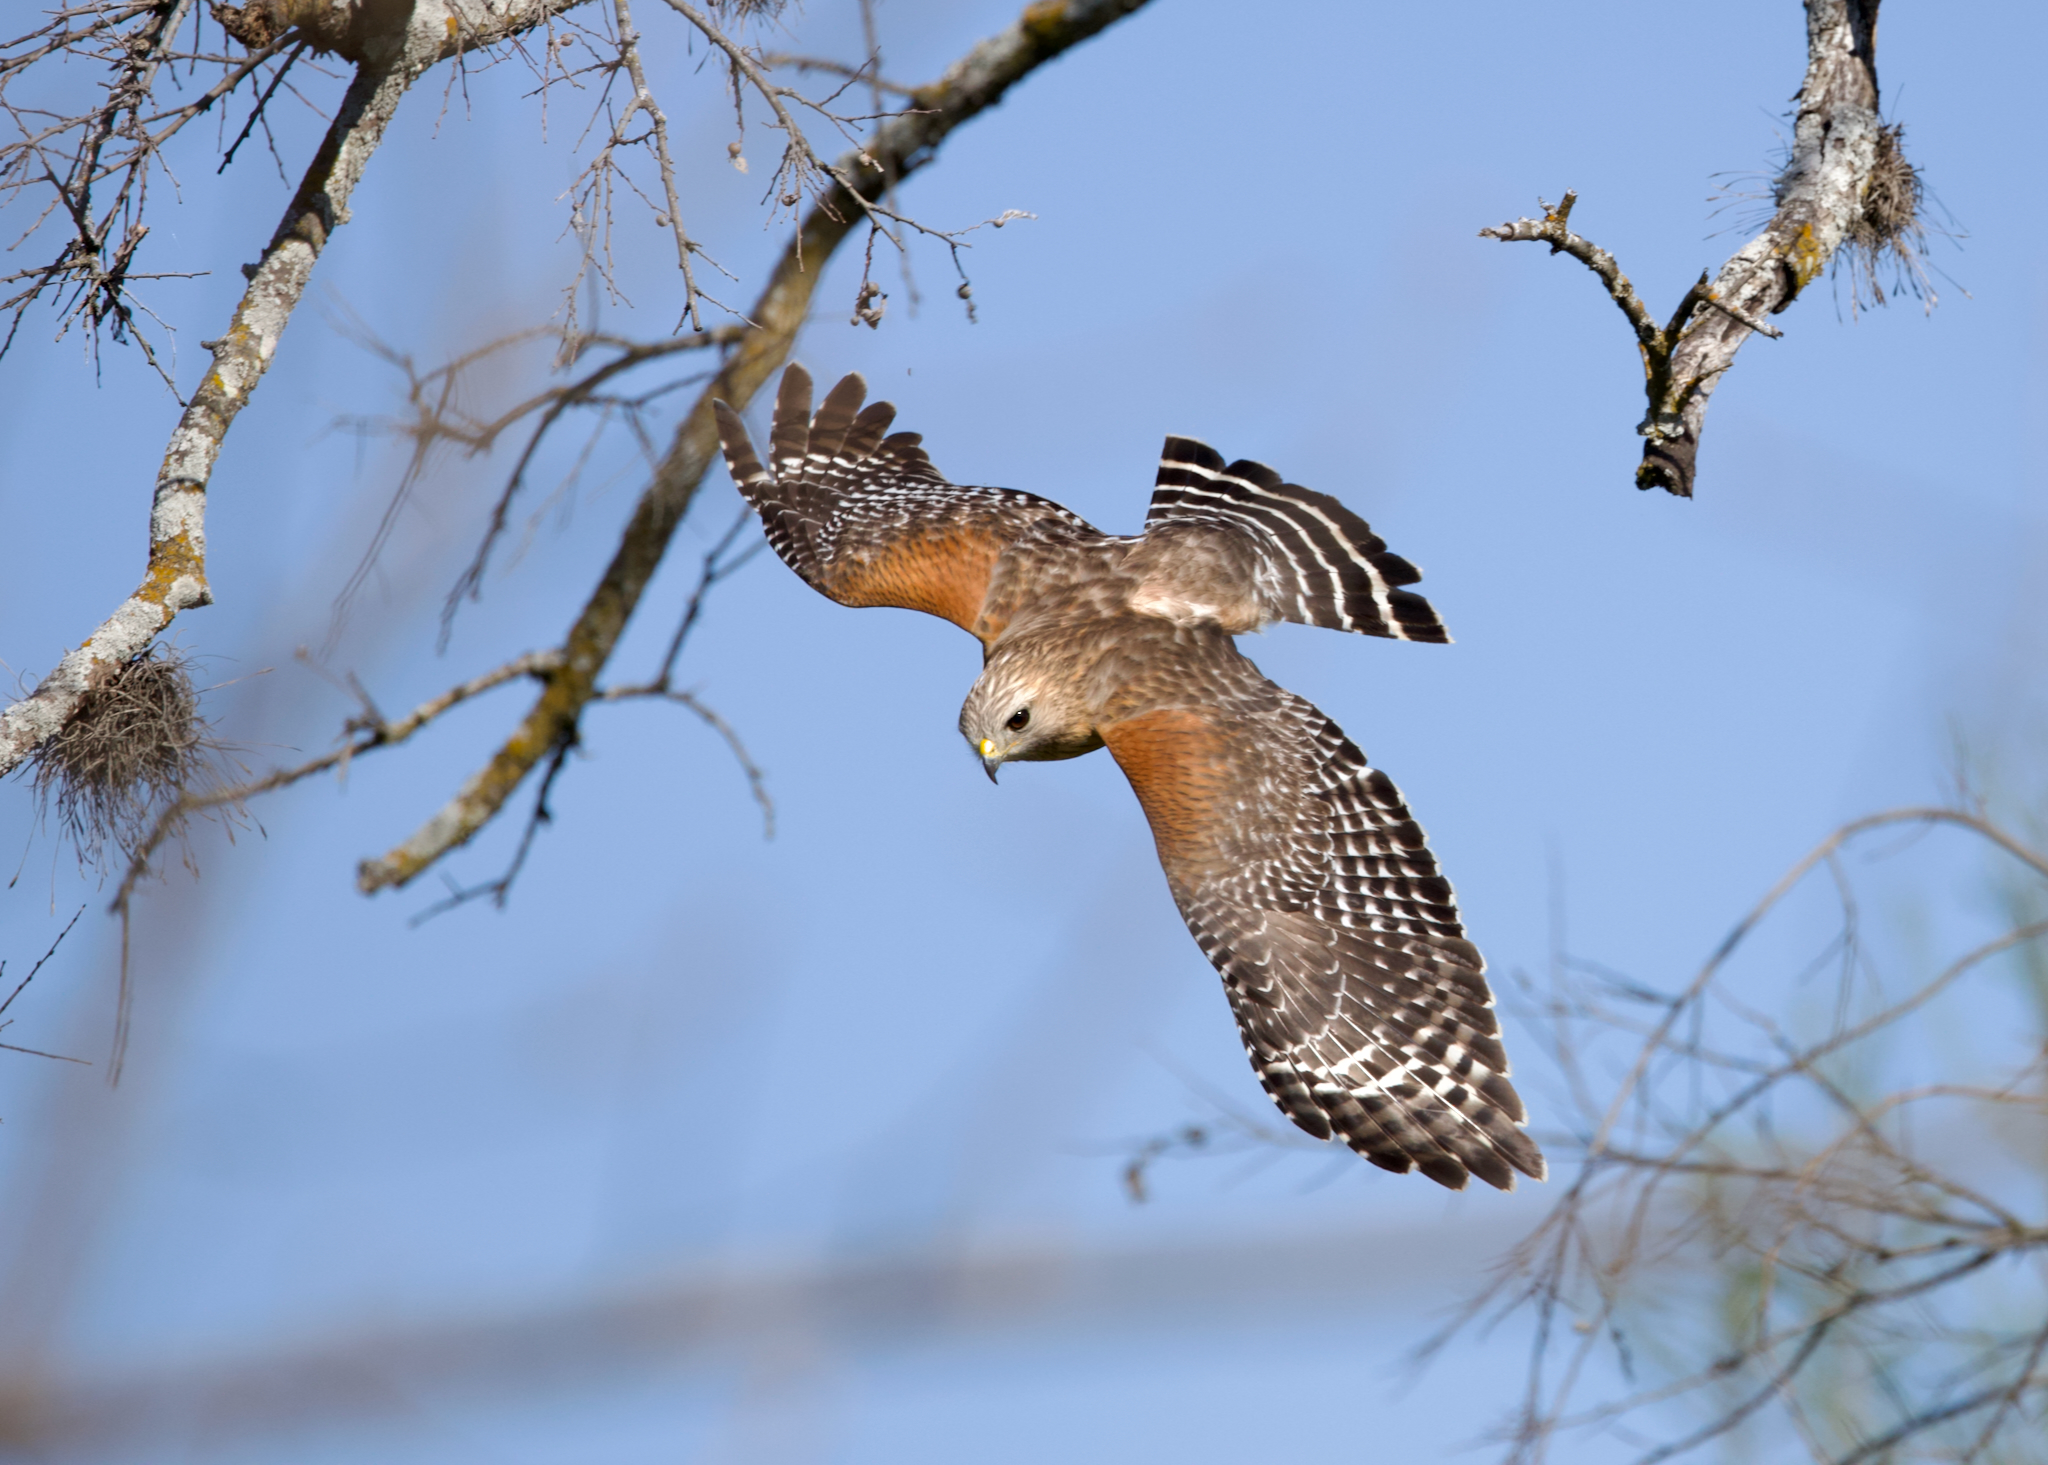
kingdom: Animalia
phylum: Chordata
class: Aves
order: Accipitriformes
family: Accipitridae
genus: Buteo
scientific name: Buteo lineatus
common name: Red-shouldered hawk
